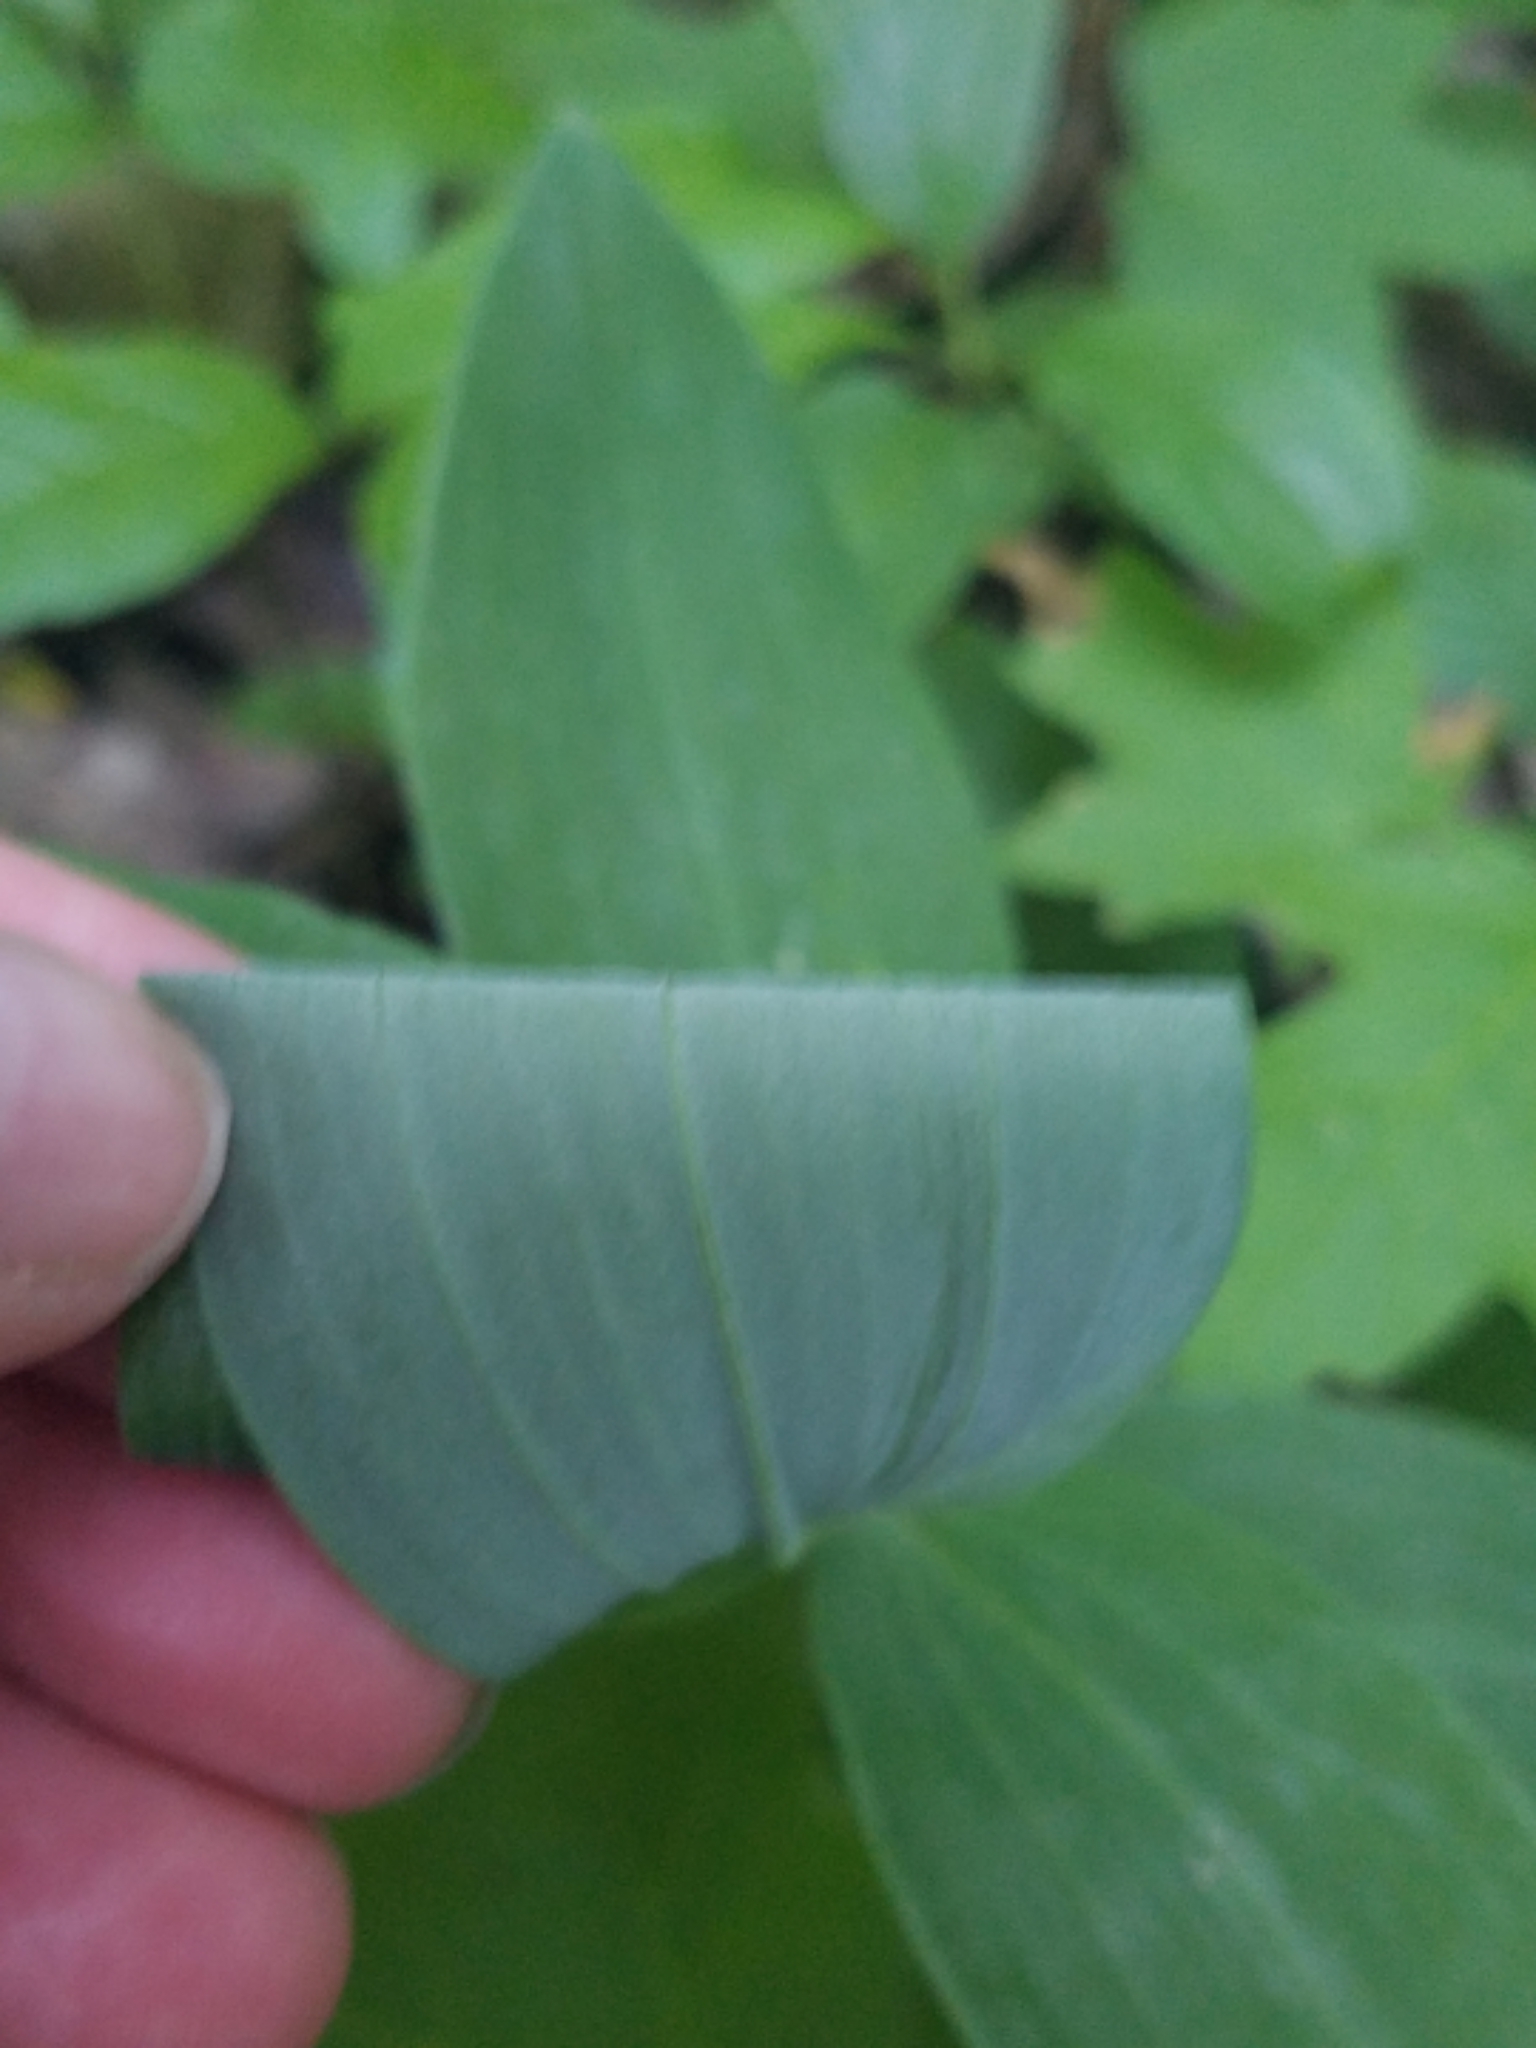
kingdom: Plantae
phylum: Tracheophyta
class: Liliopsida
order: Asparagales
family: Asparagaceae
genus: Polygonatum
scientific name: Polygonatum biflorum
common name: American solomon's-seal
